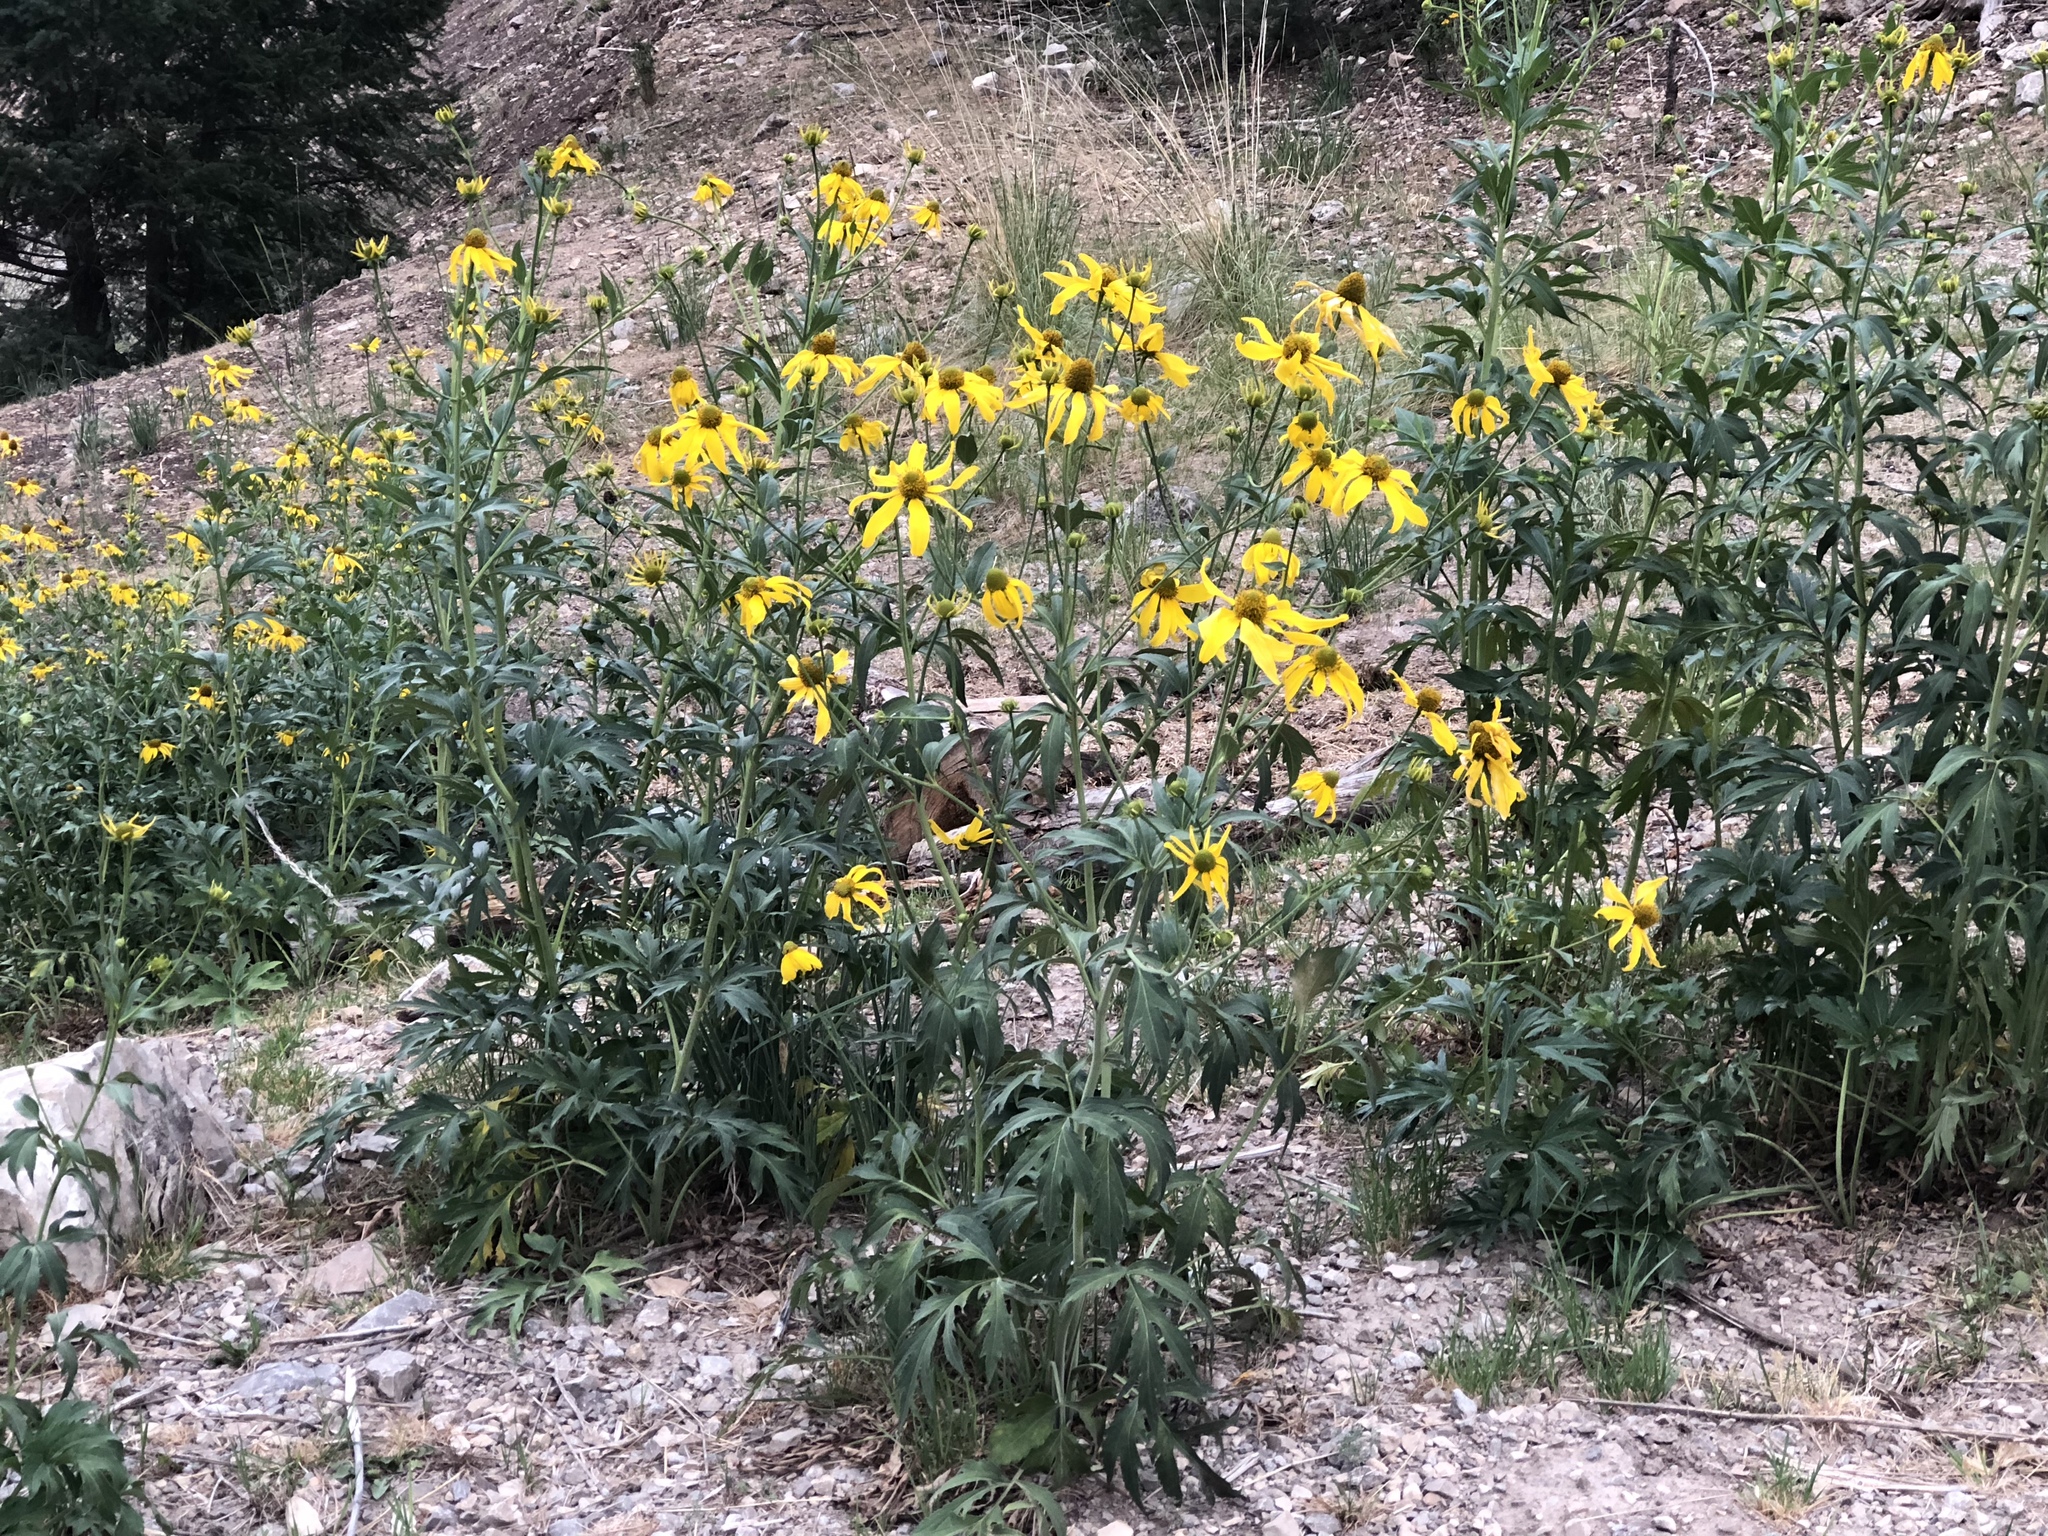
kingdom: Plantae
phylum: Tracheophyta
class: Magnoliopsida
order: Asterales
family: Asteraceae
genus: Rudbeckia
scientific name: Rudbeckia laciniata
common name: Coneflower
